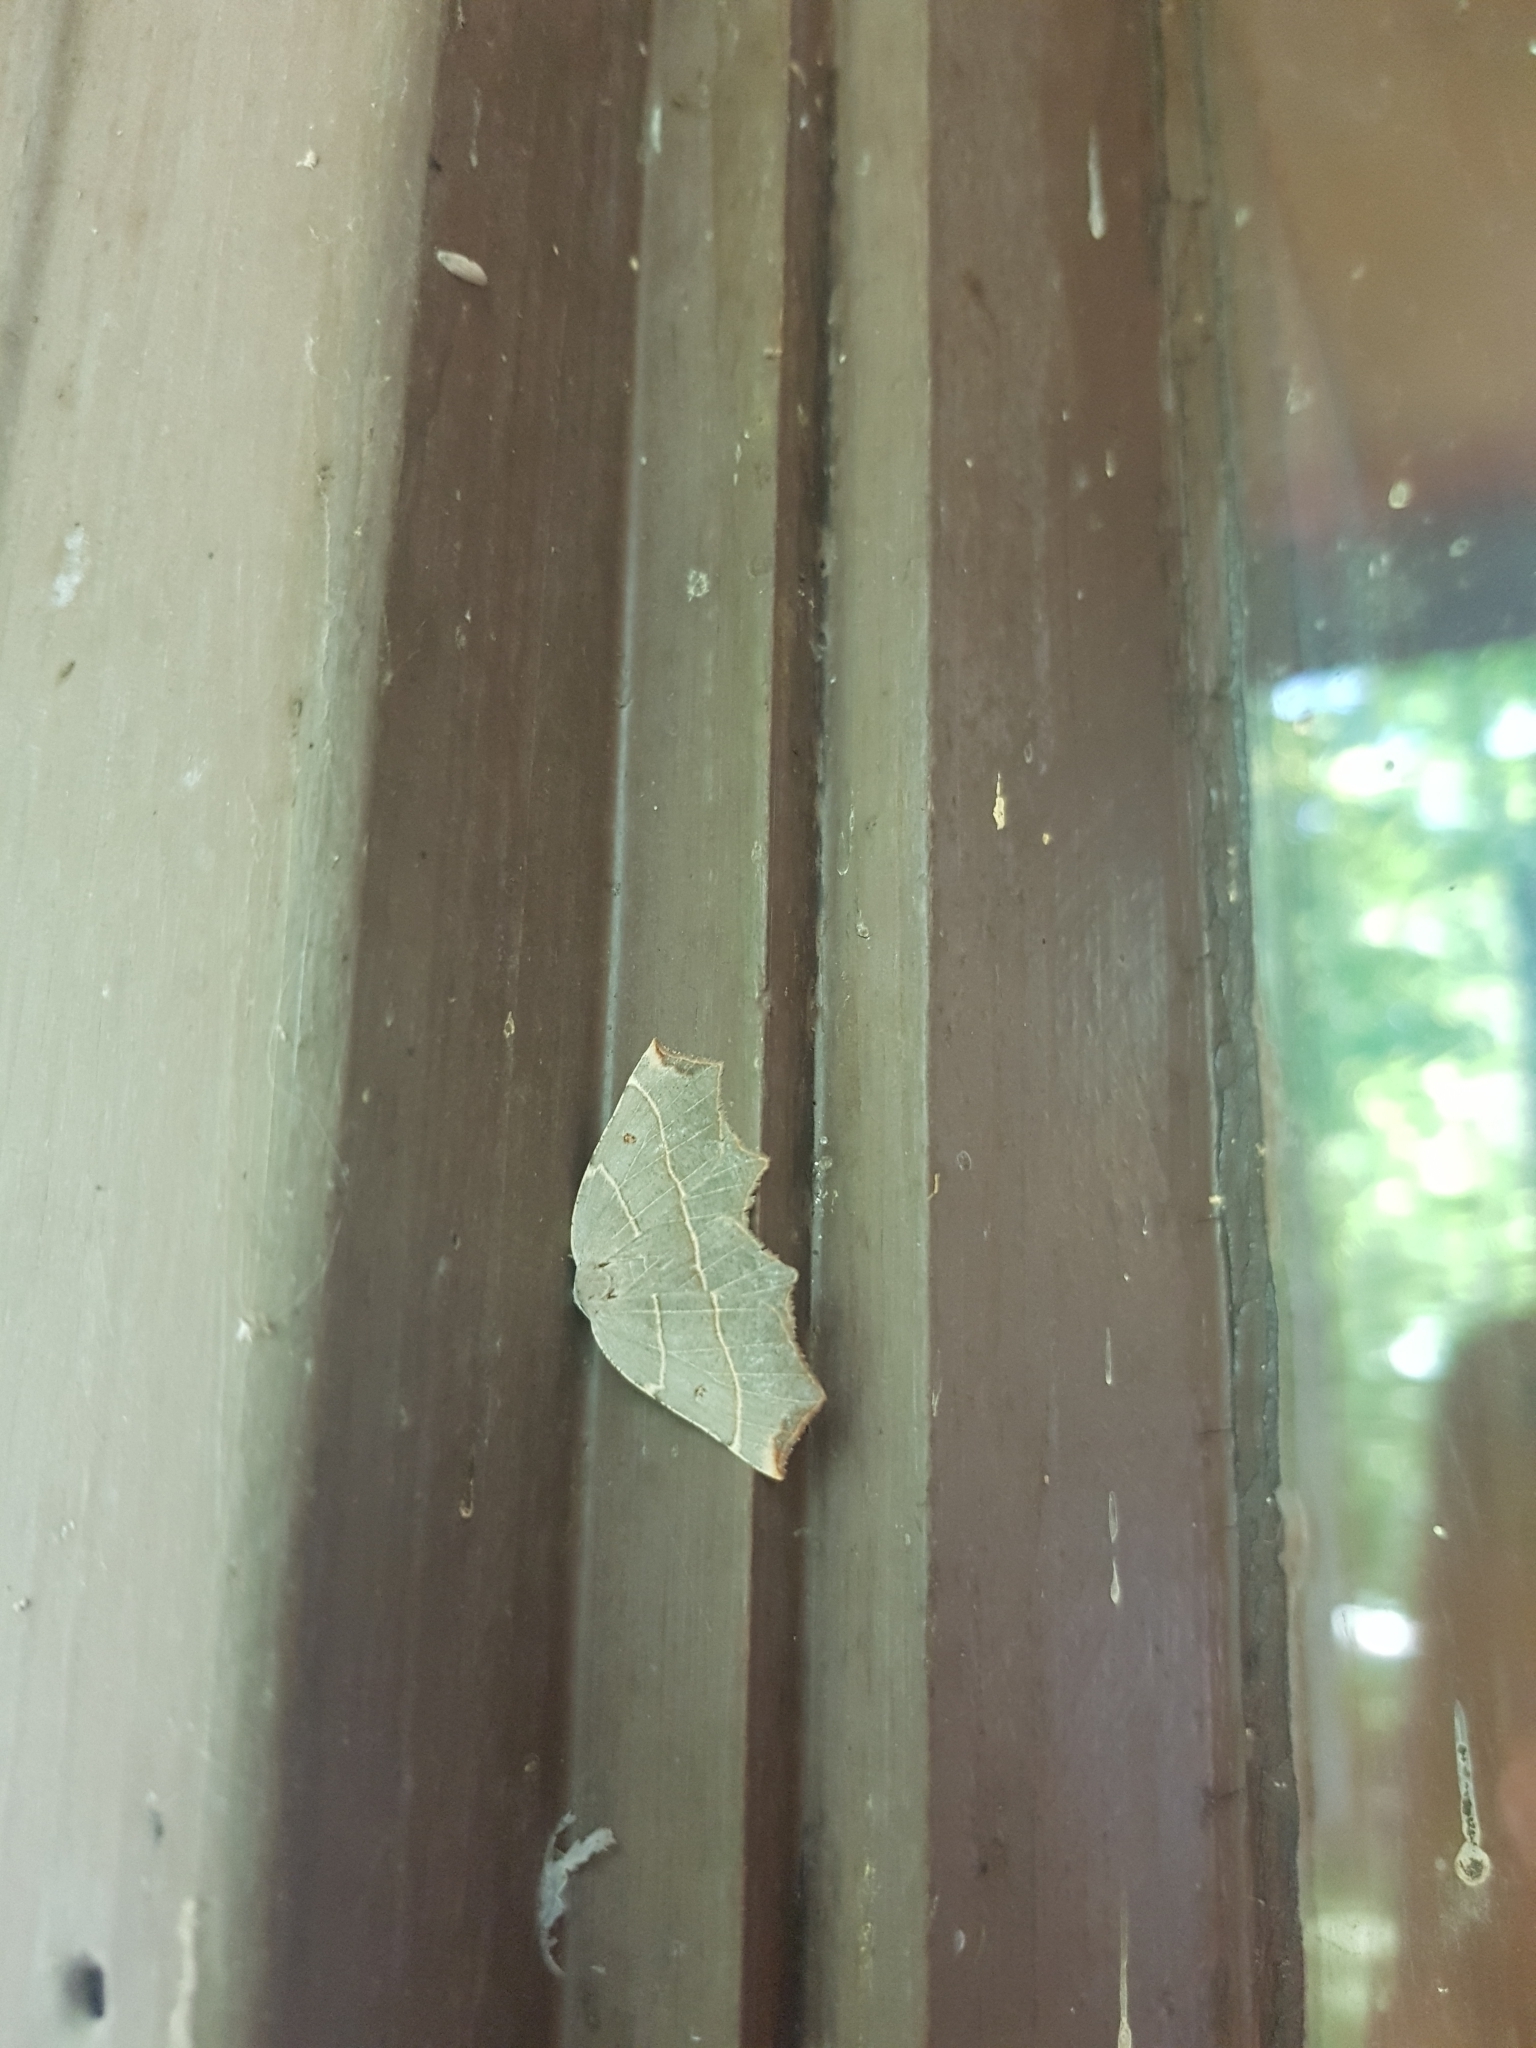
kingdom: Animalia
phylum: Arthropoda
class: Insecta
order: Lepidoptera
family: Geometridae
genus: Metanema
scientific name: Metanema inatomaria
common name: Pale metanema
